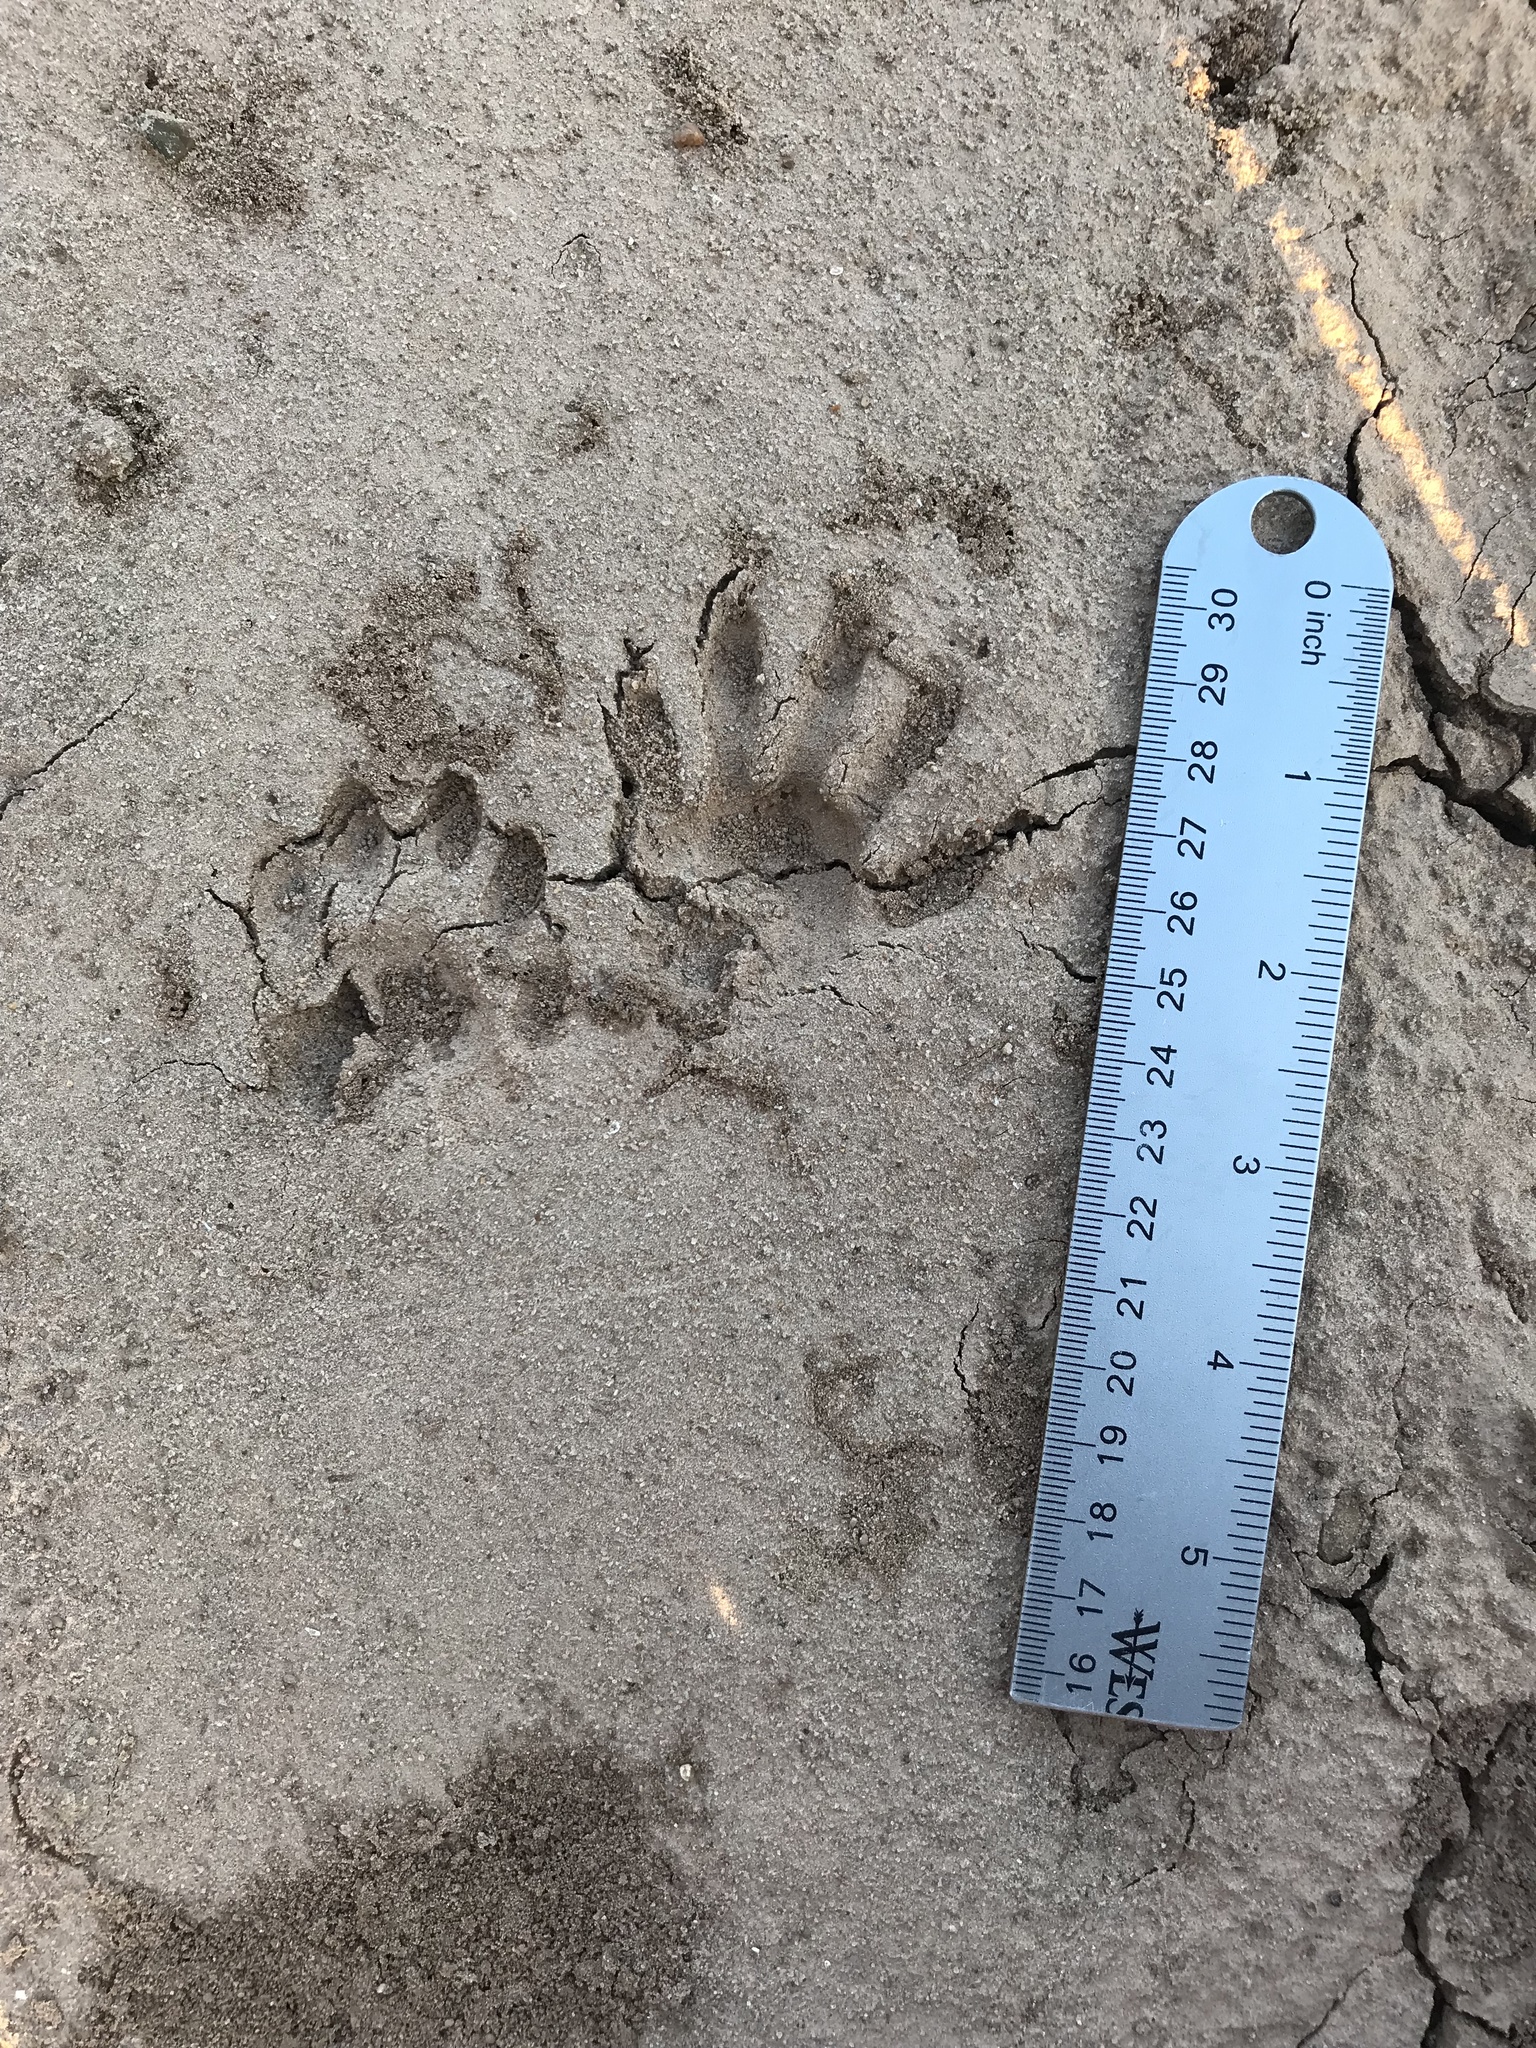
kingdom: Animalia
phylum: Chordata
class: Mammalia
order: Carnivora
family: Procyonidae
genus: Procyon
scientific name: Procyon lotor
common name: Raccoon
